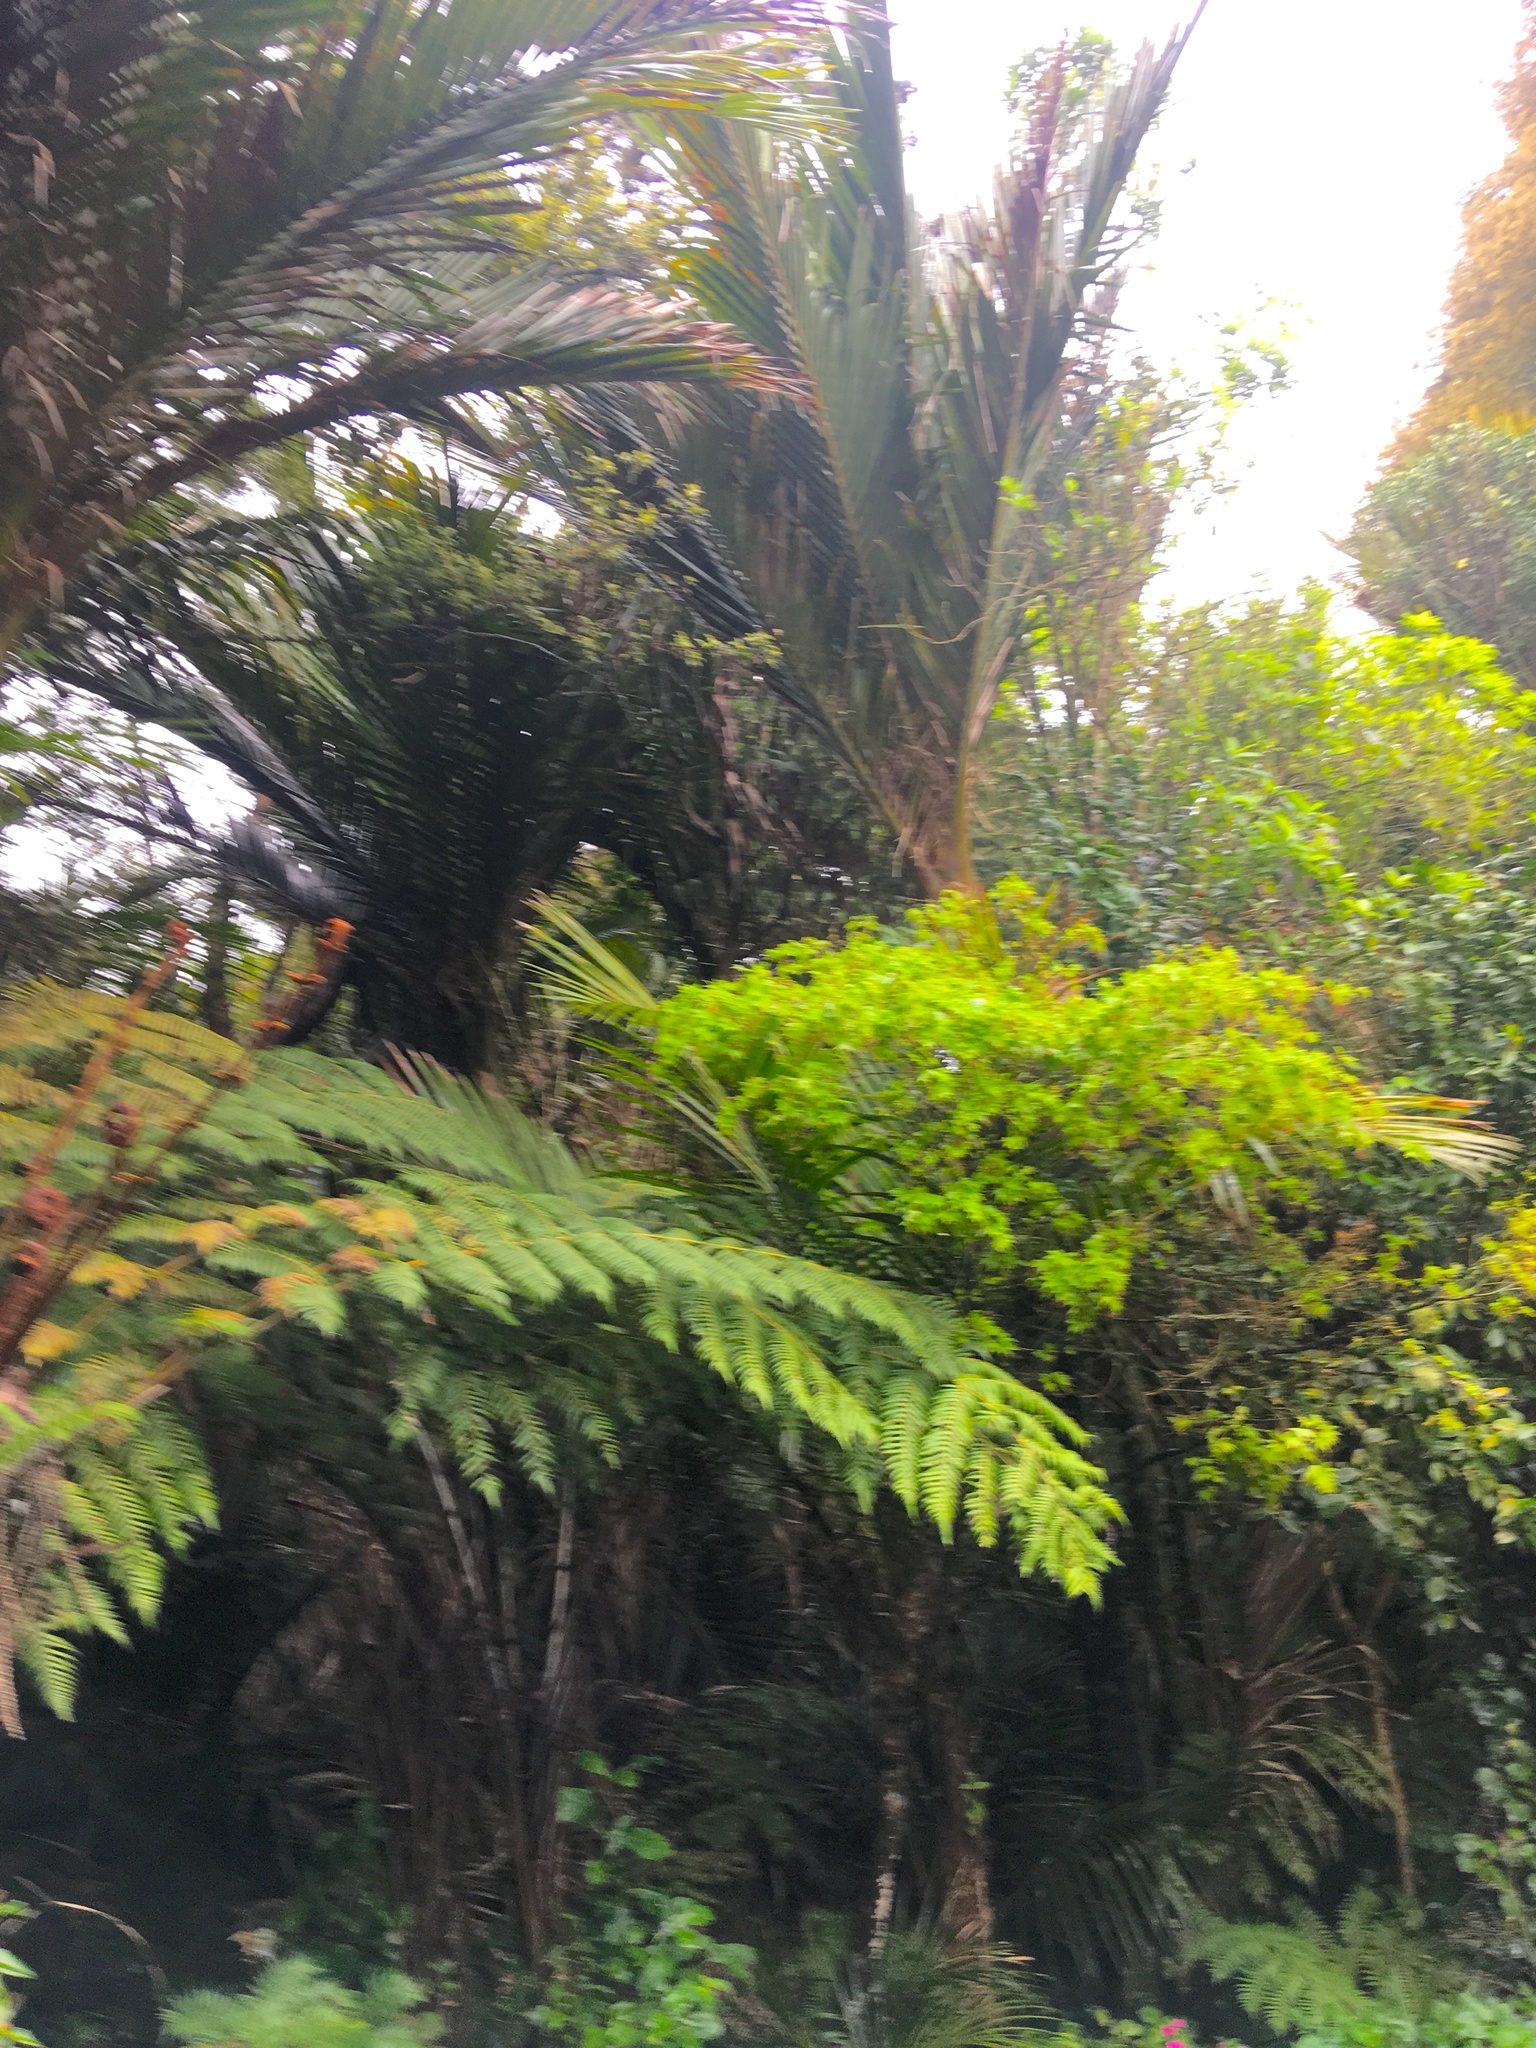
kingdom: Plantae
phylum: Tracheophyta
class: Liliopsida
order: Arecales
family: Arecaceae
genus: Rhopalostylis
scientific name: Rhopalostylis sapida
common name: Feather-duster palm
